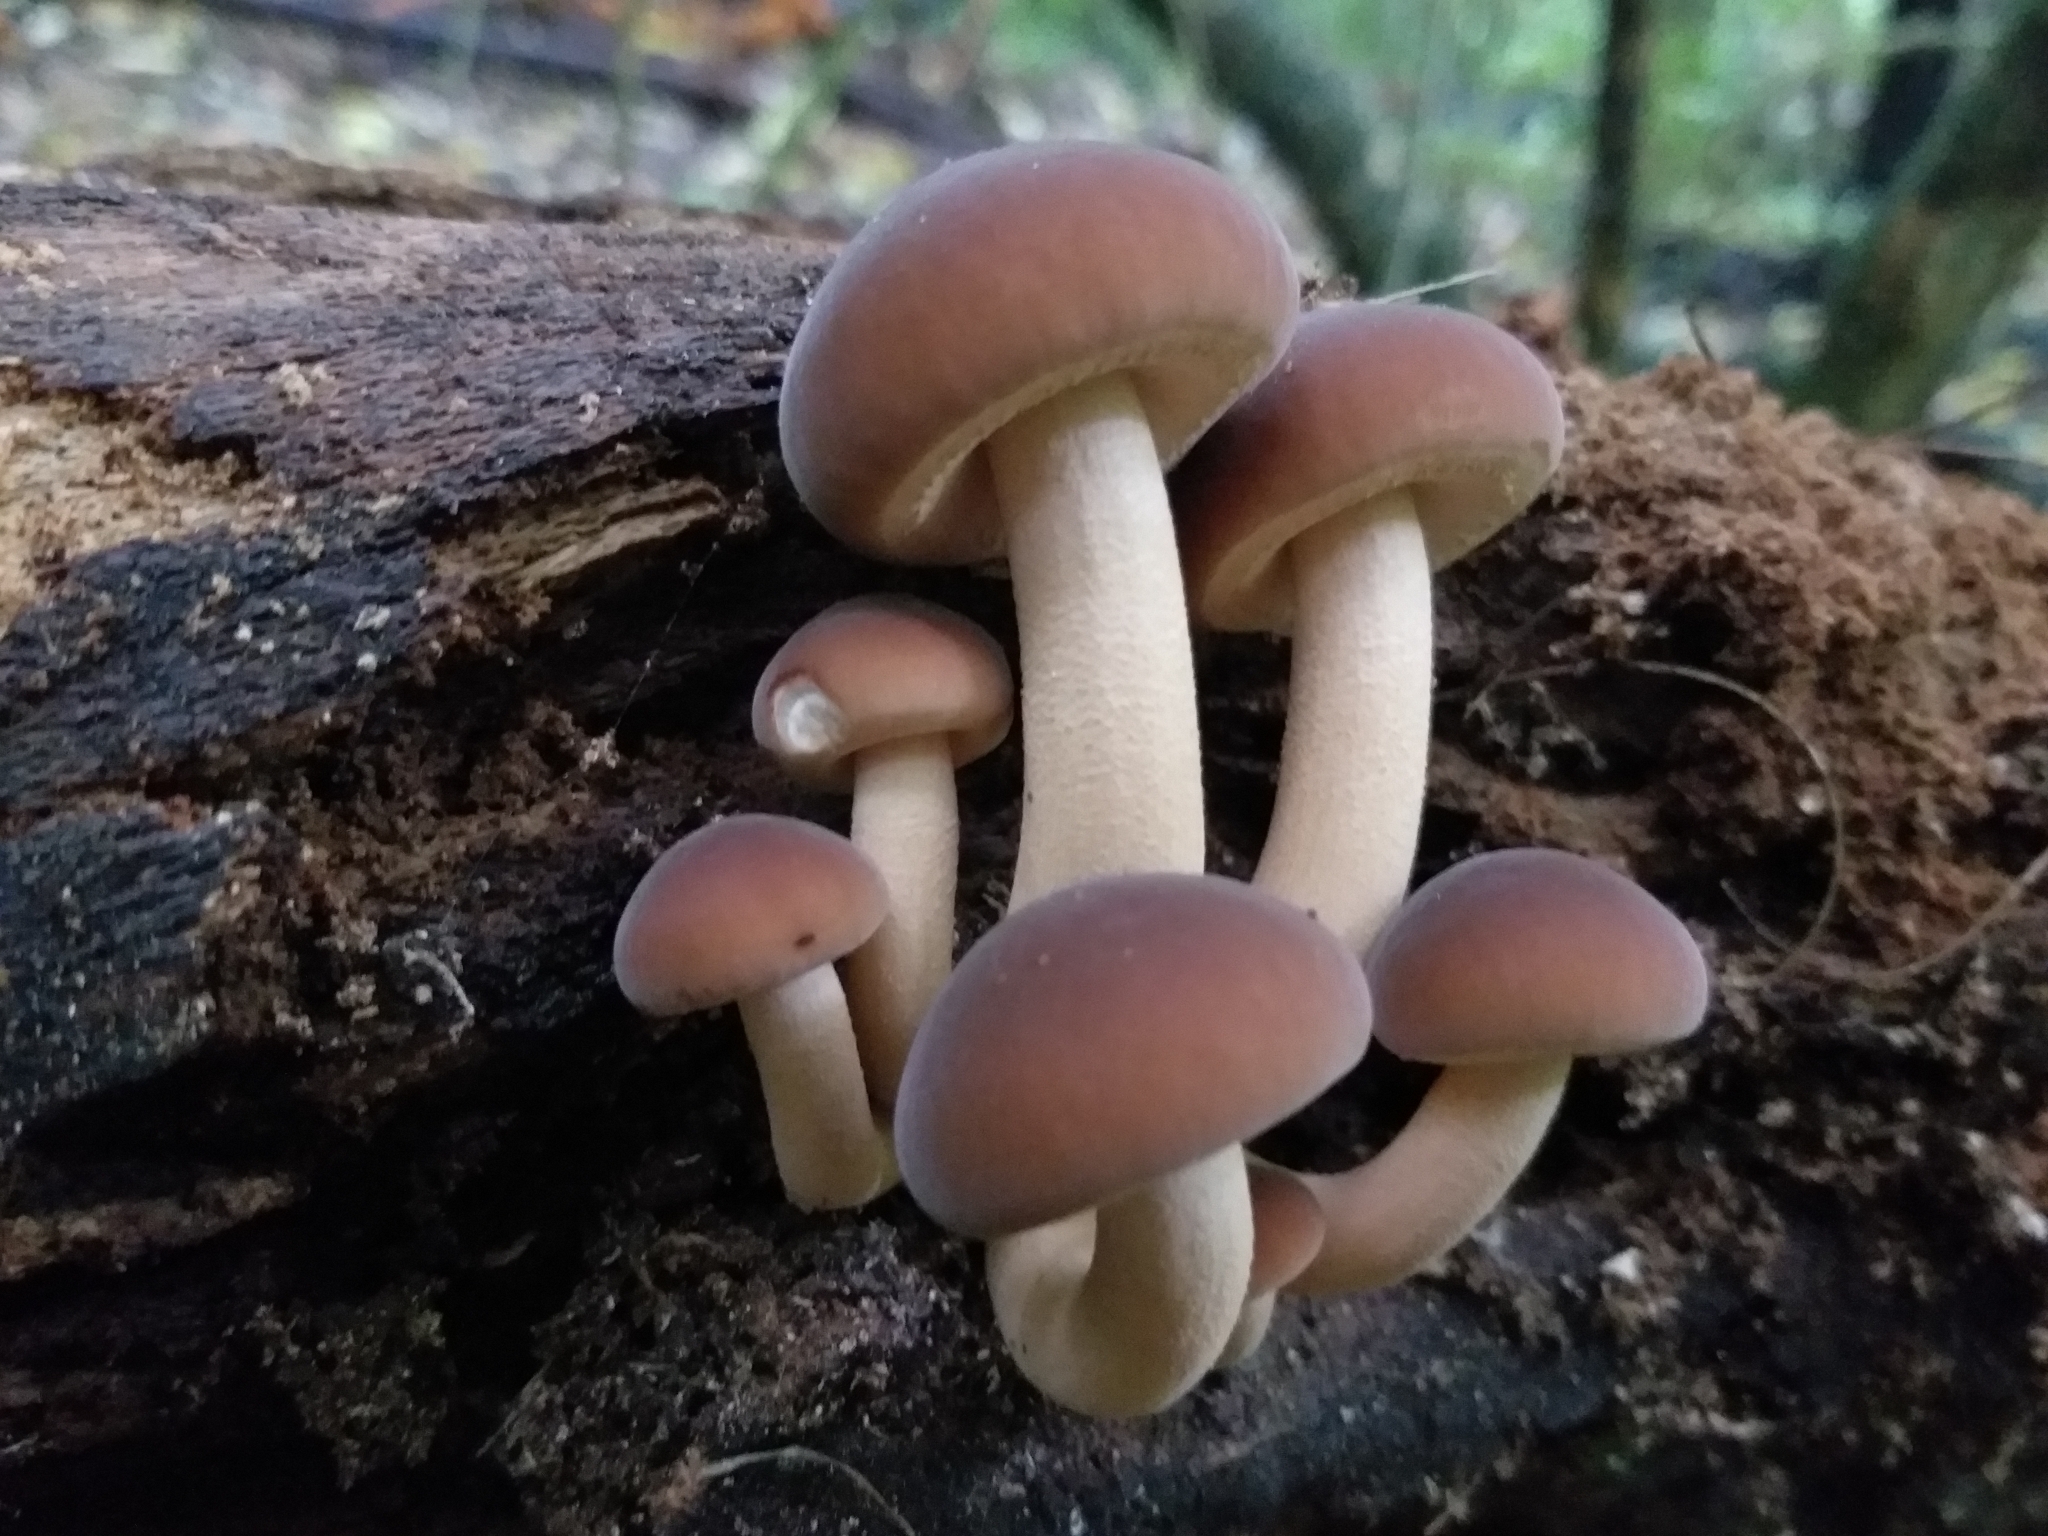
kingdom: Fungi
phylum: Basidiomycota
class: Agaricomycetes
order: Agaricales
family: Tubariaceae
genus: Cyclocybe
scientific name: Cyclocybe parasitica
